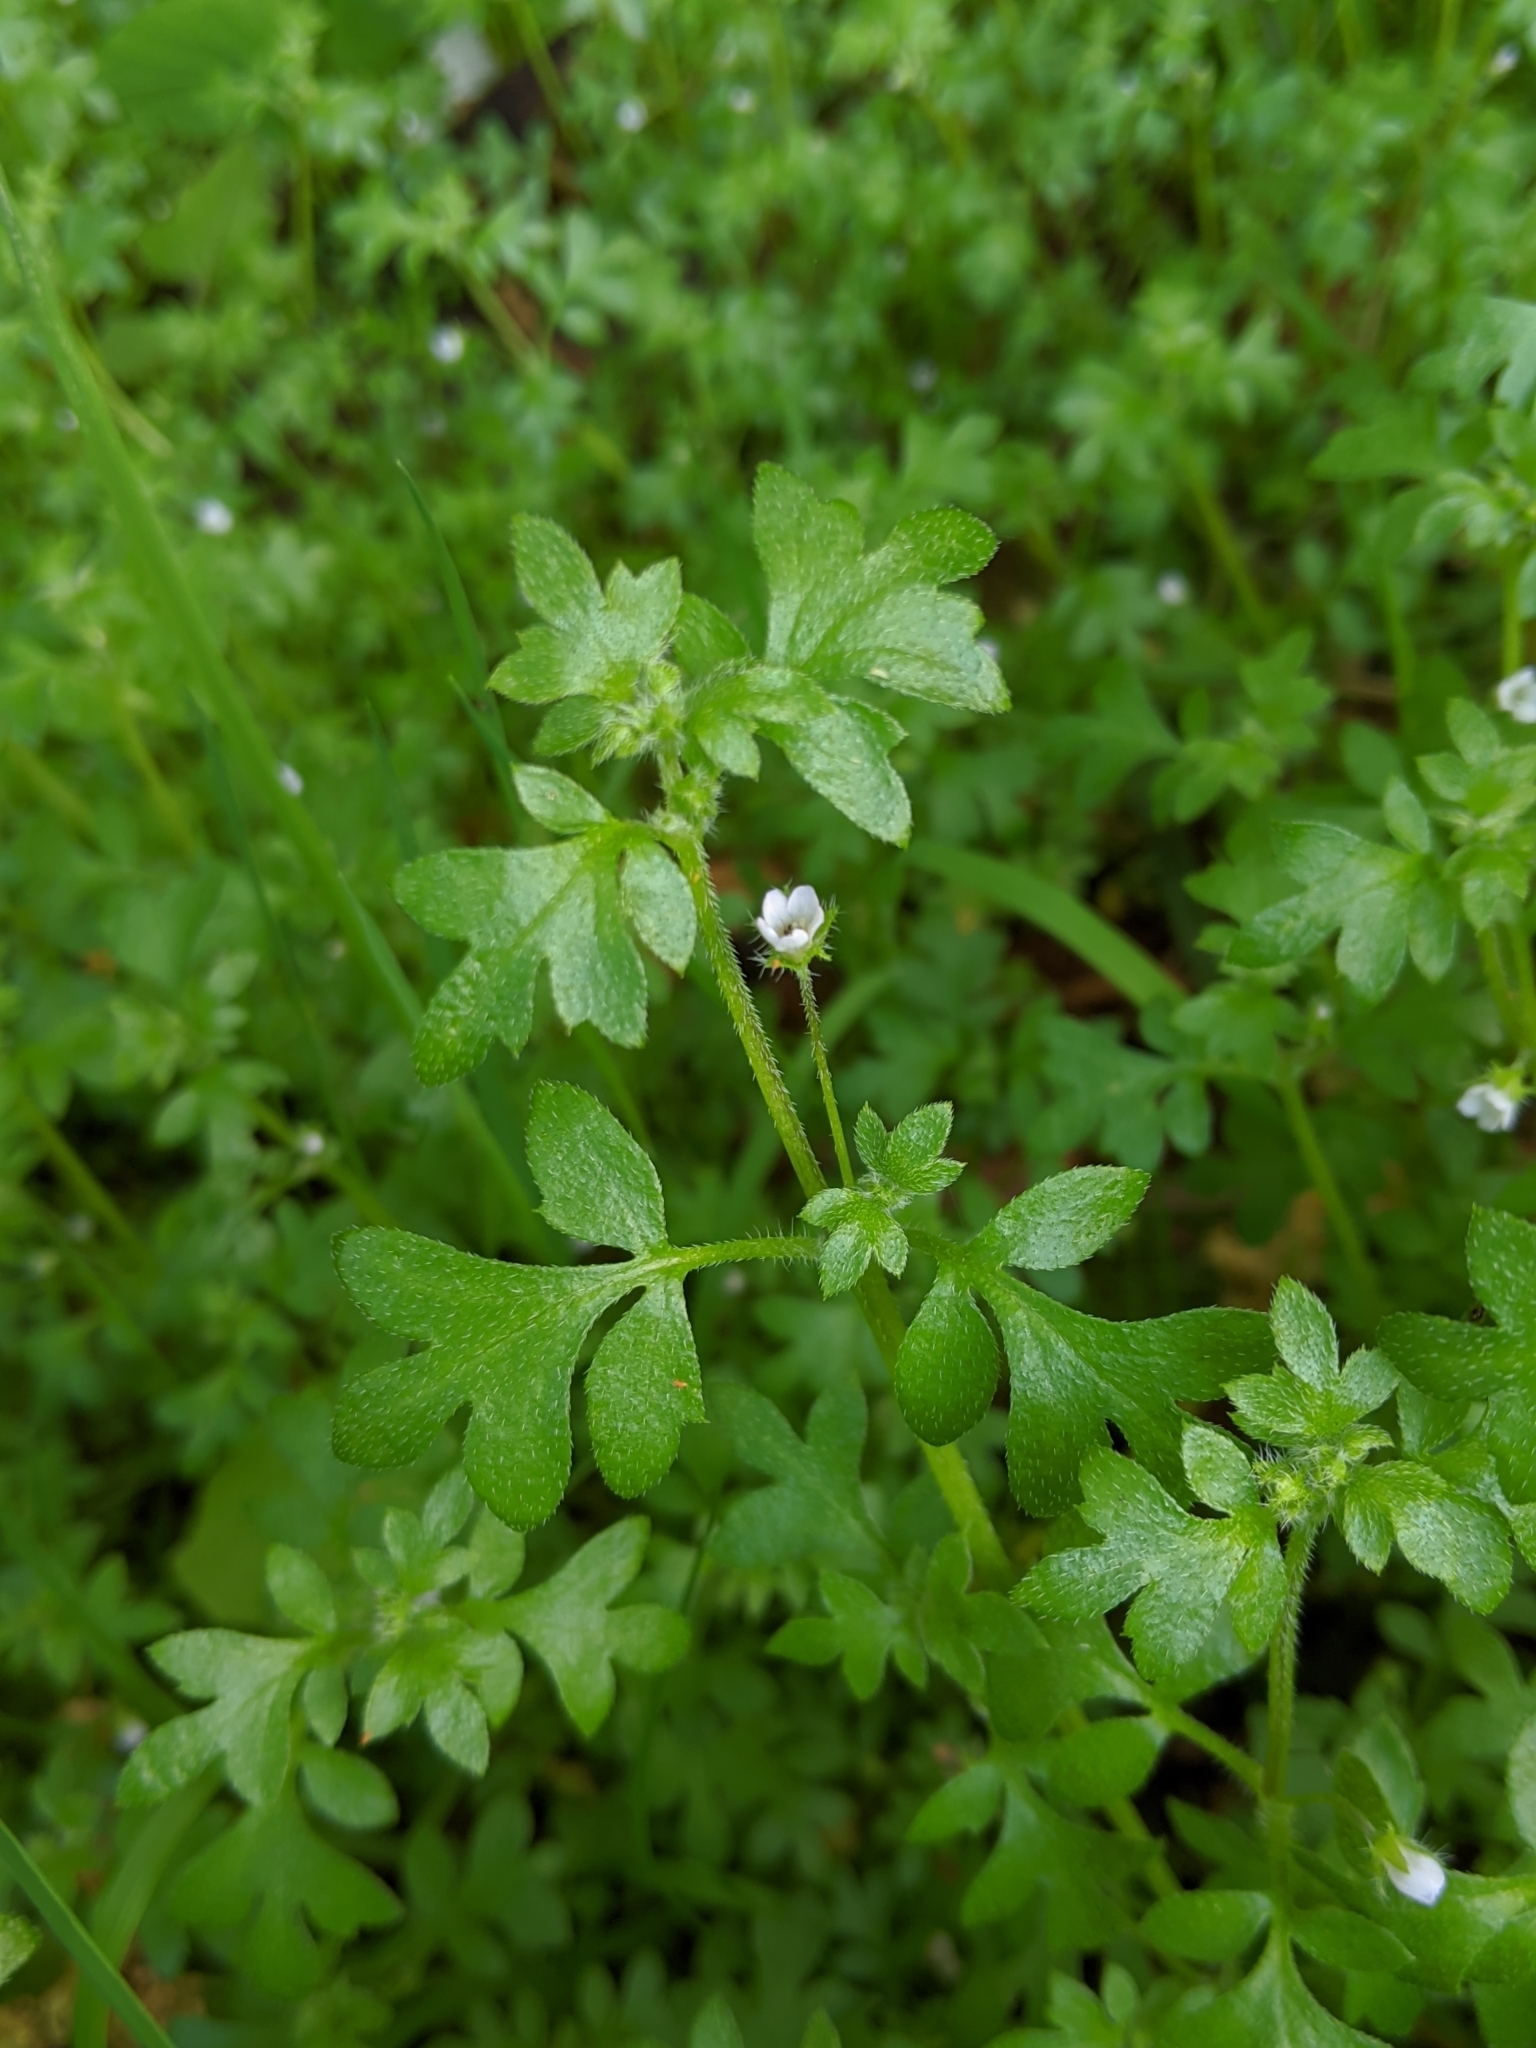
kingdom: Plantae
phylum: Tracheophyta
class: Magnoliopsida
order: Boraginales
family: Hydrophyllaceae
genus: Nemophila
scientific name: Nemophila parviflora
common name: Small-flowered baby-blue-eyes
